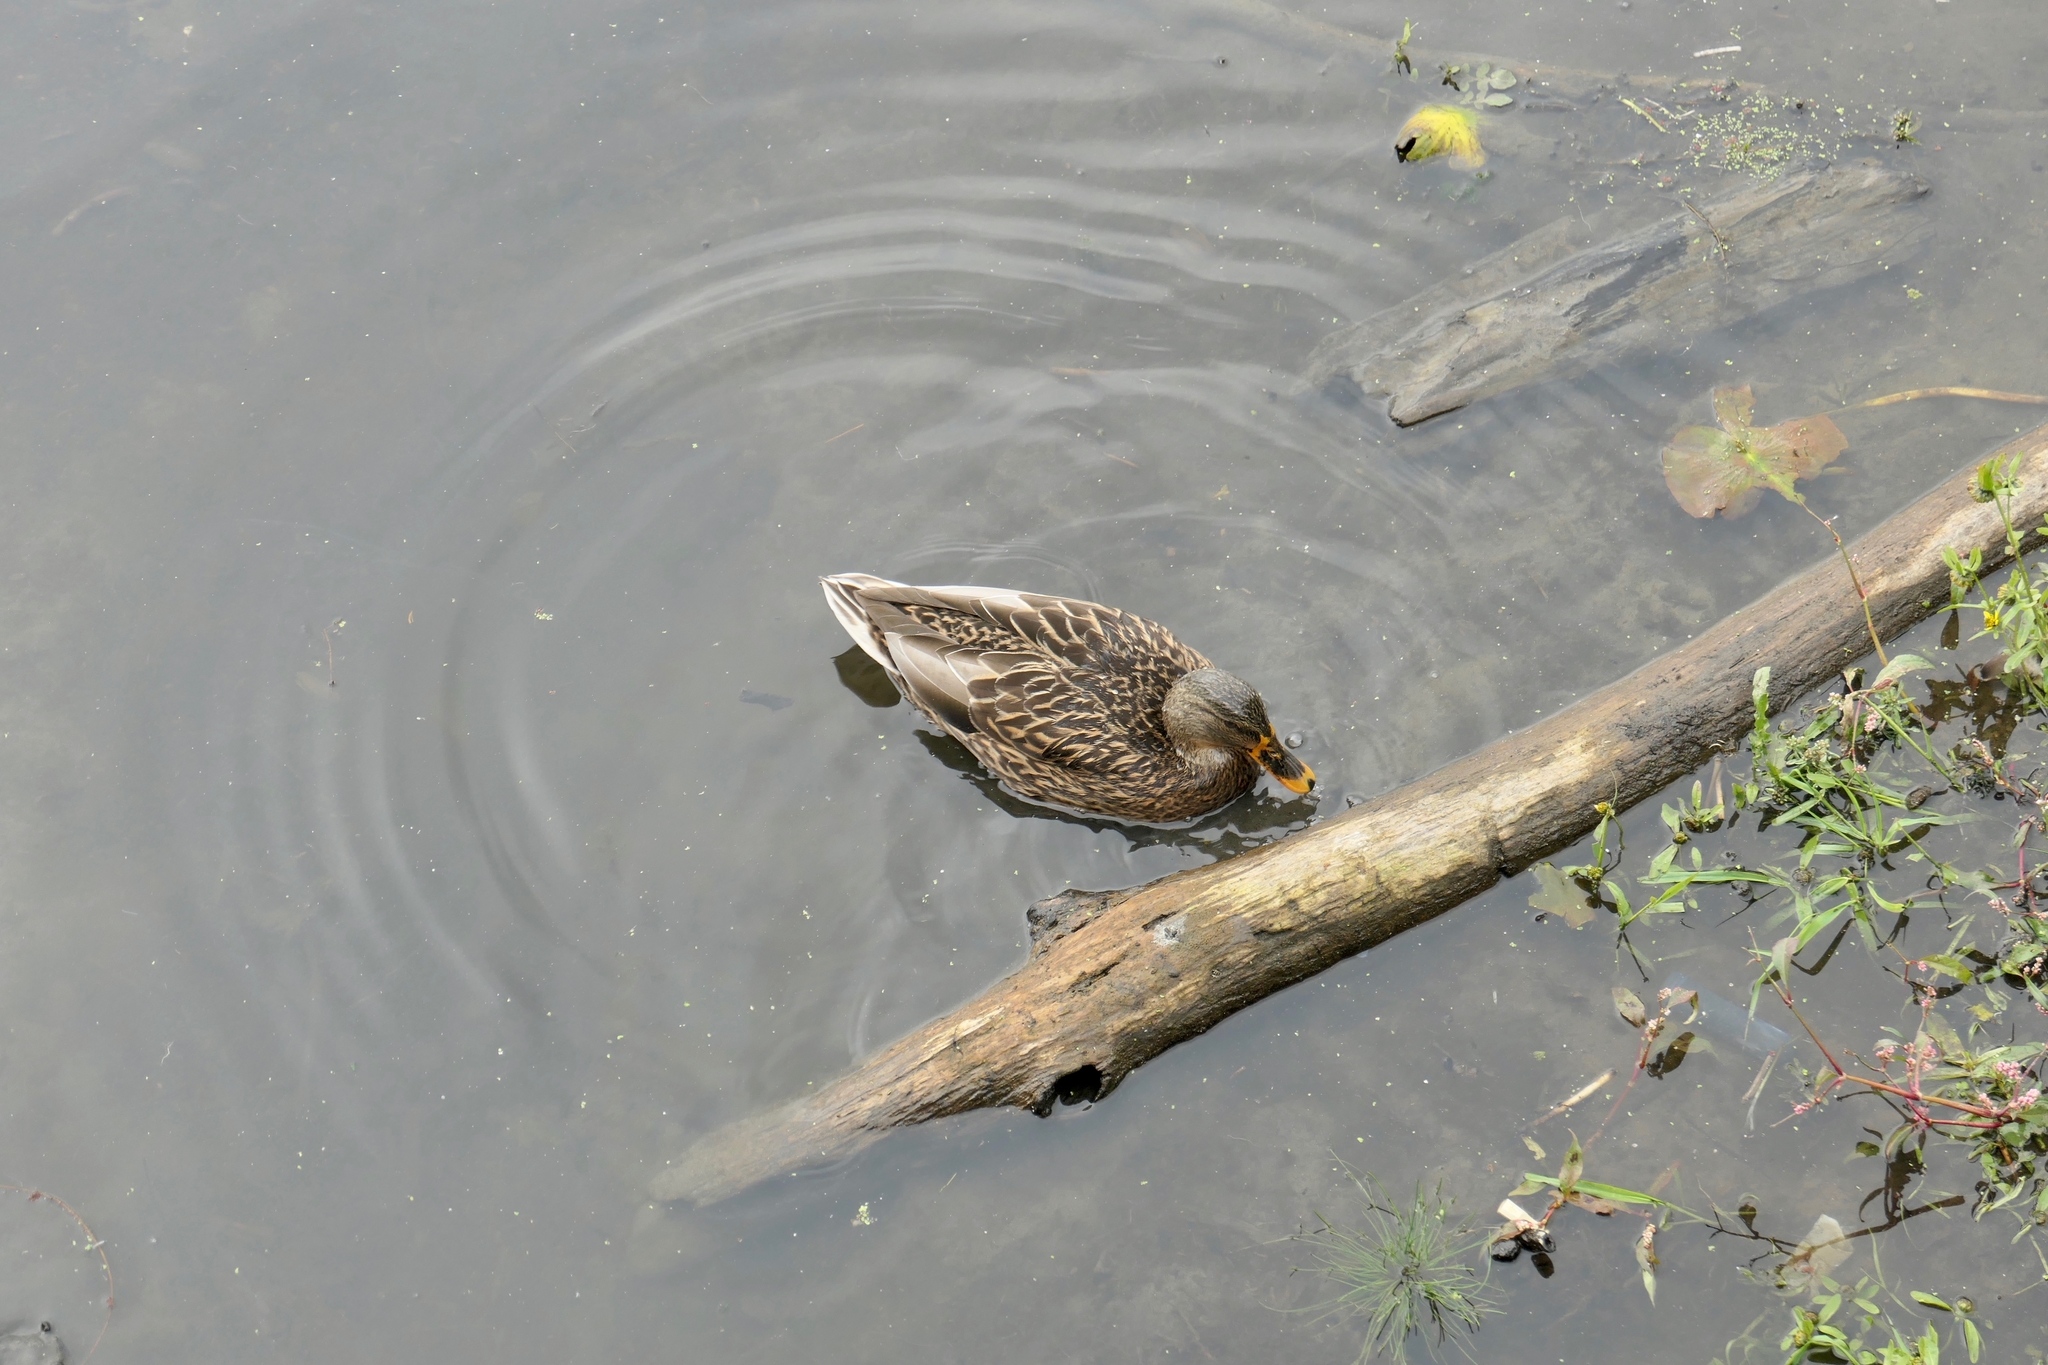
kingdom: Animalia
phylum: Chordata
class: Aves
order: Anseriformes
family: Anatidae
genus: Anas
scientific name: Anas platyrhynchos
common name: Mallard
